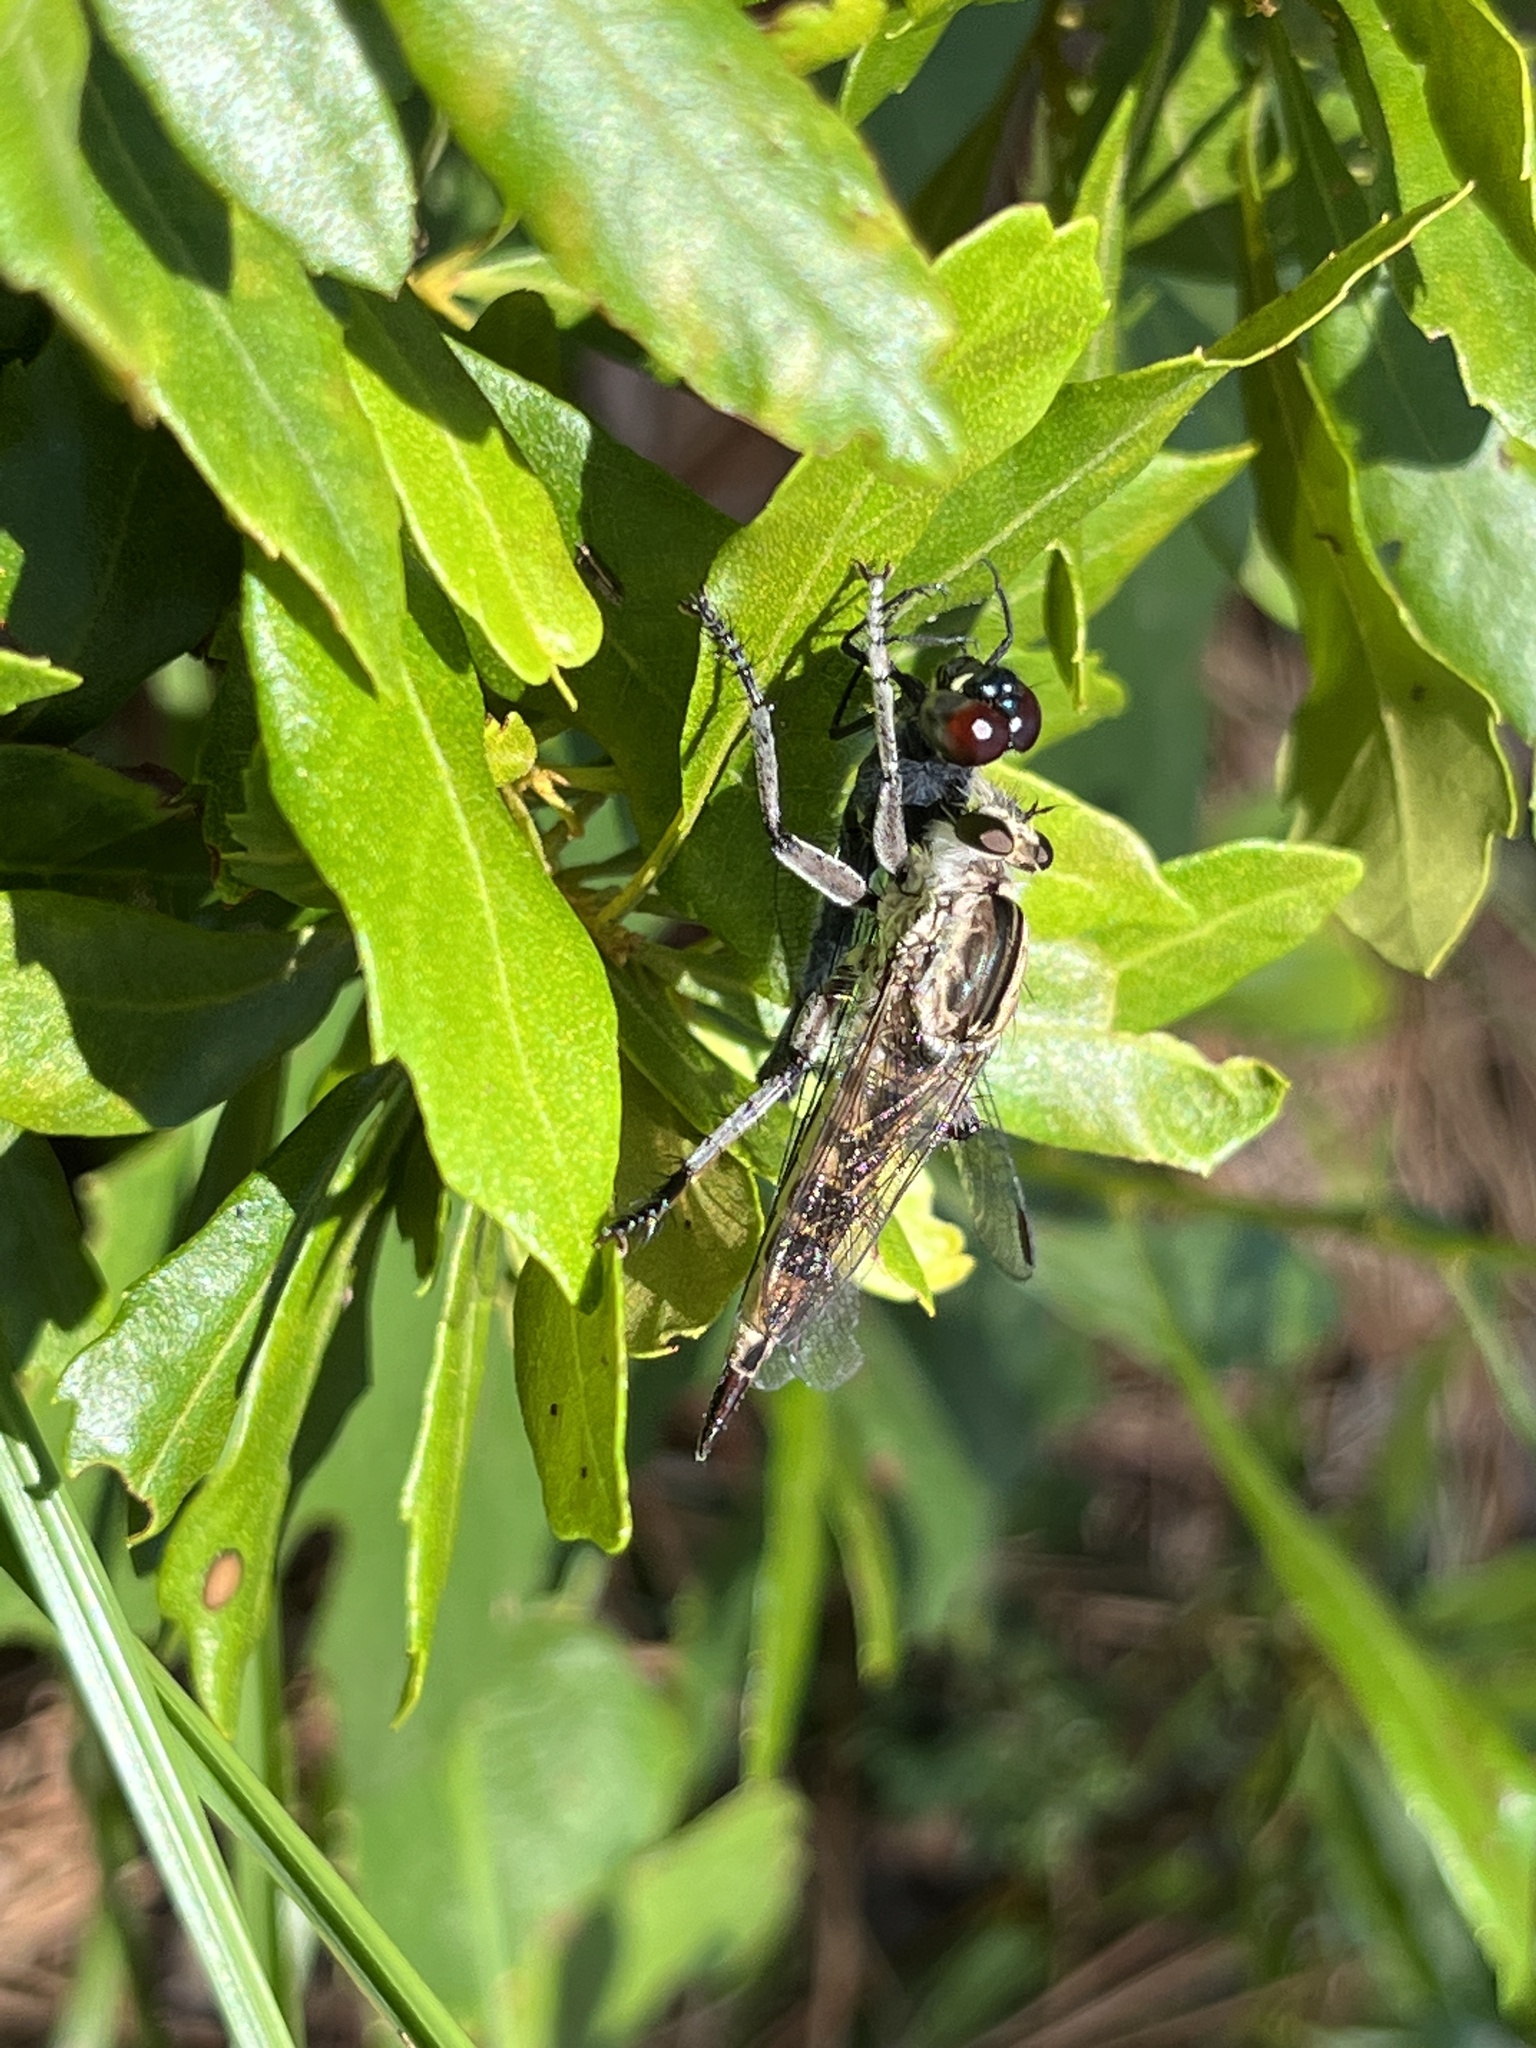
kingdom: Animalia
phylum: Arthropoda
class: Insecta
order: Diptera
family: Asilidae
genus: Triorla
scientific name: Triorla interrupta
